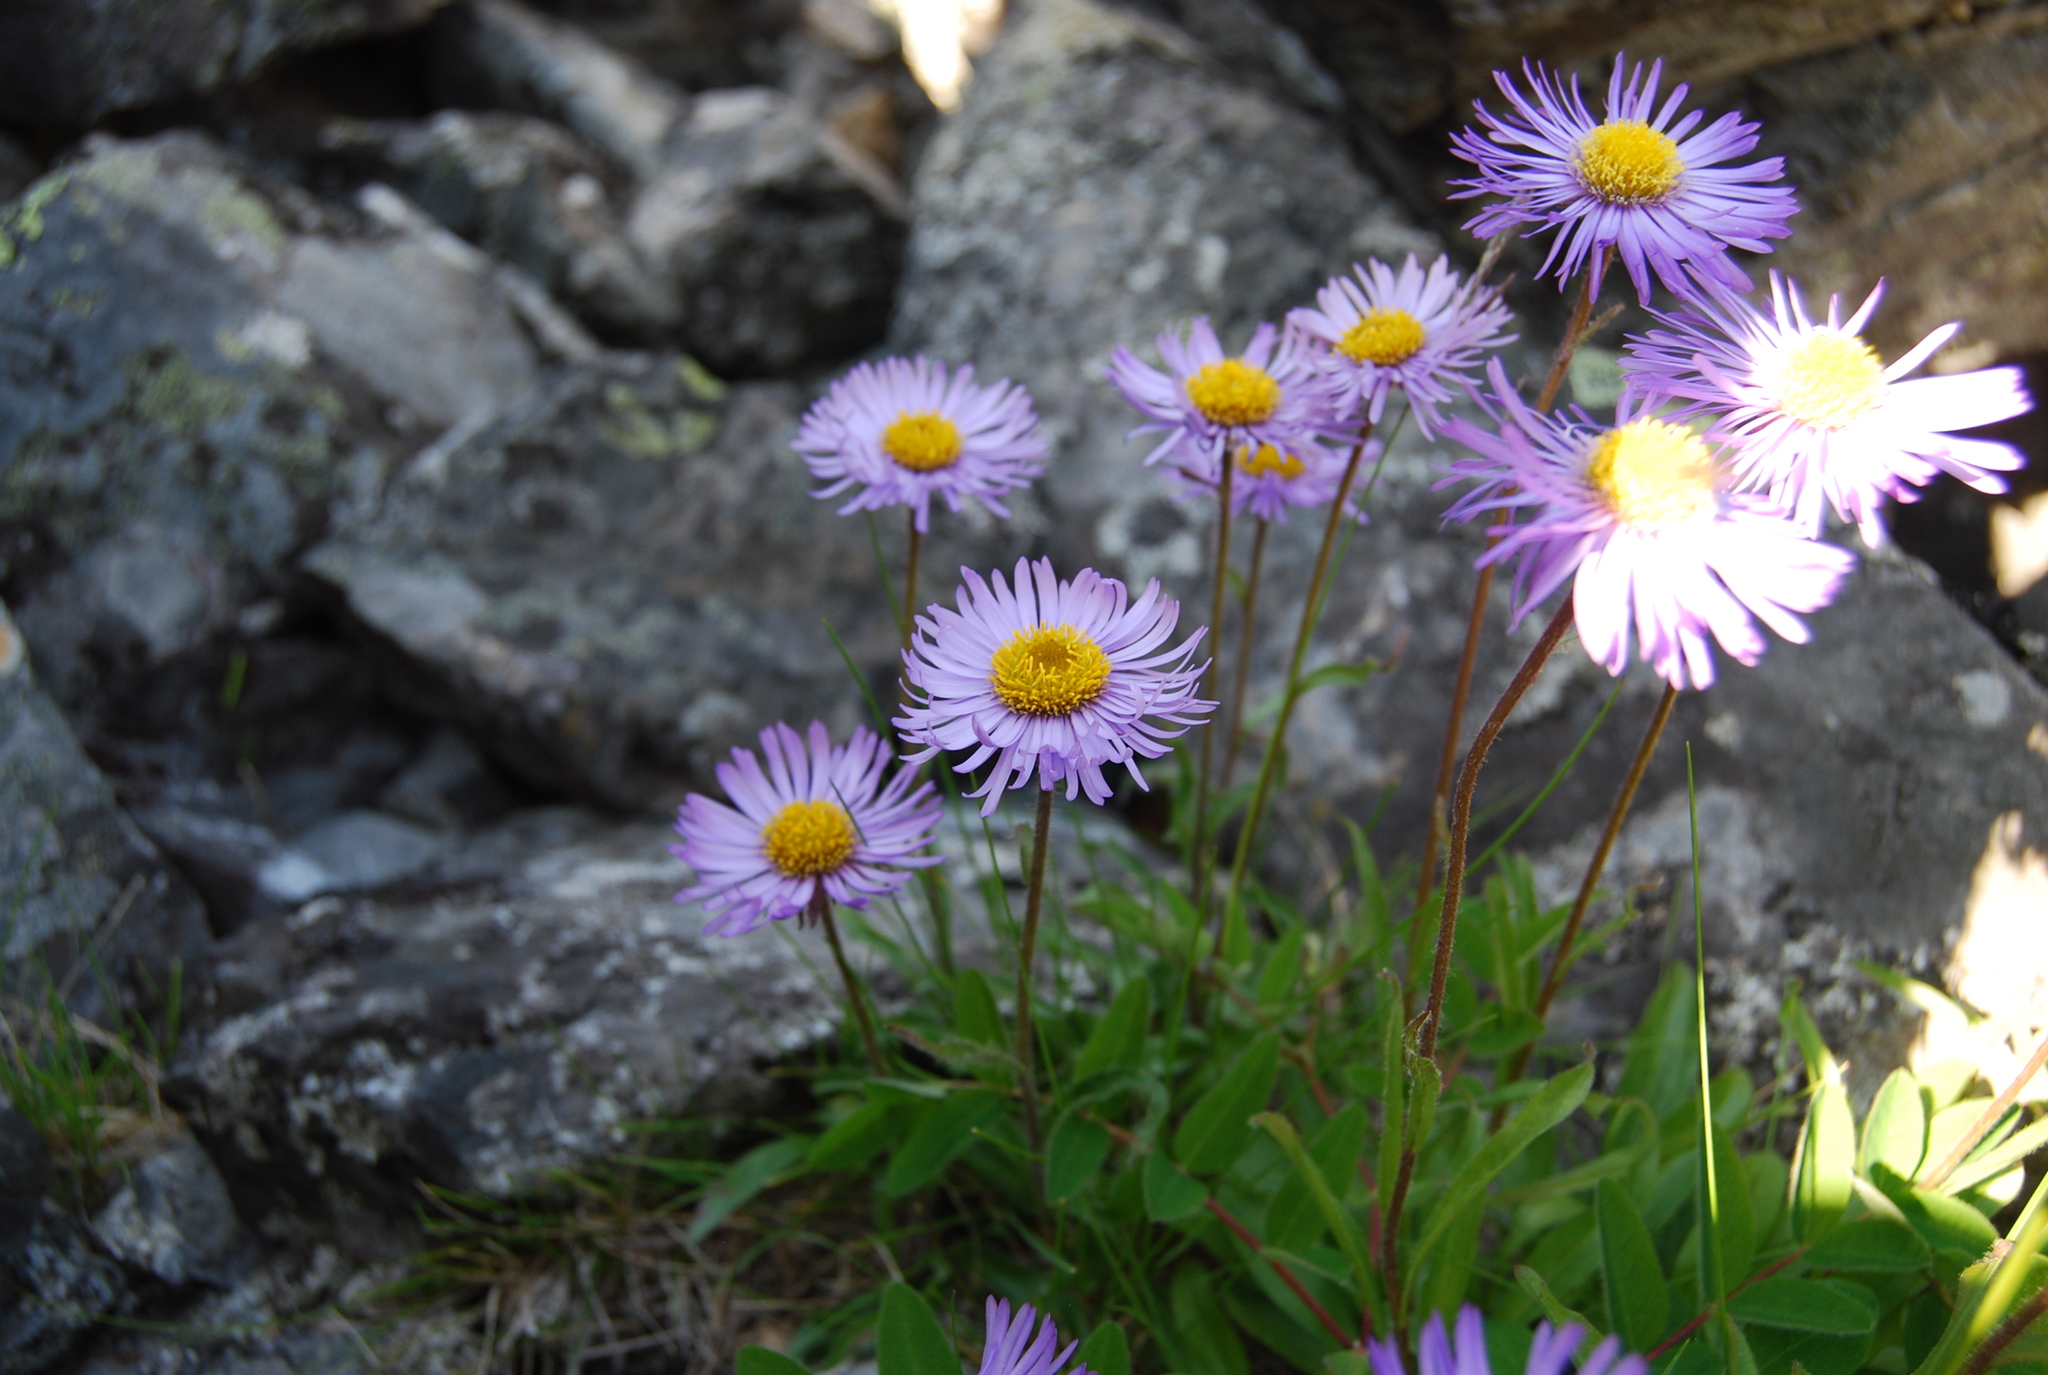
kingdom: Plantae
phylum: Tracheophyta
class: Magnoliopsida
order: Asterales
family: Asteraceae
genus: Erigeron
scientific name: Erigeron thunbergii
